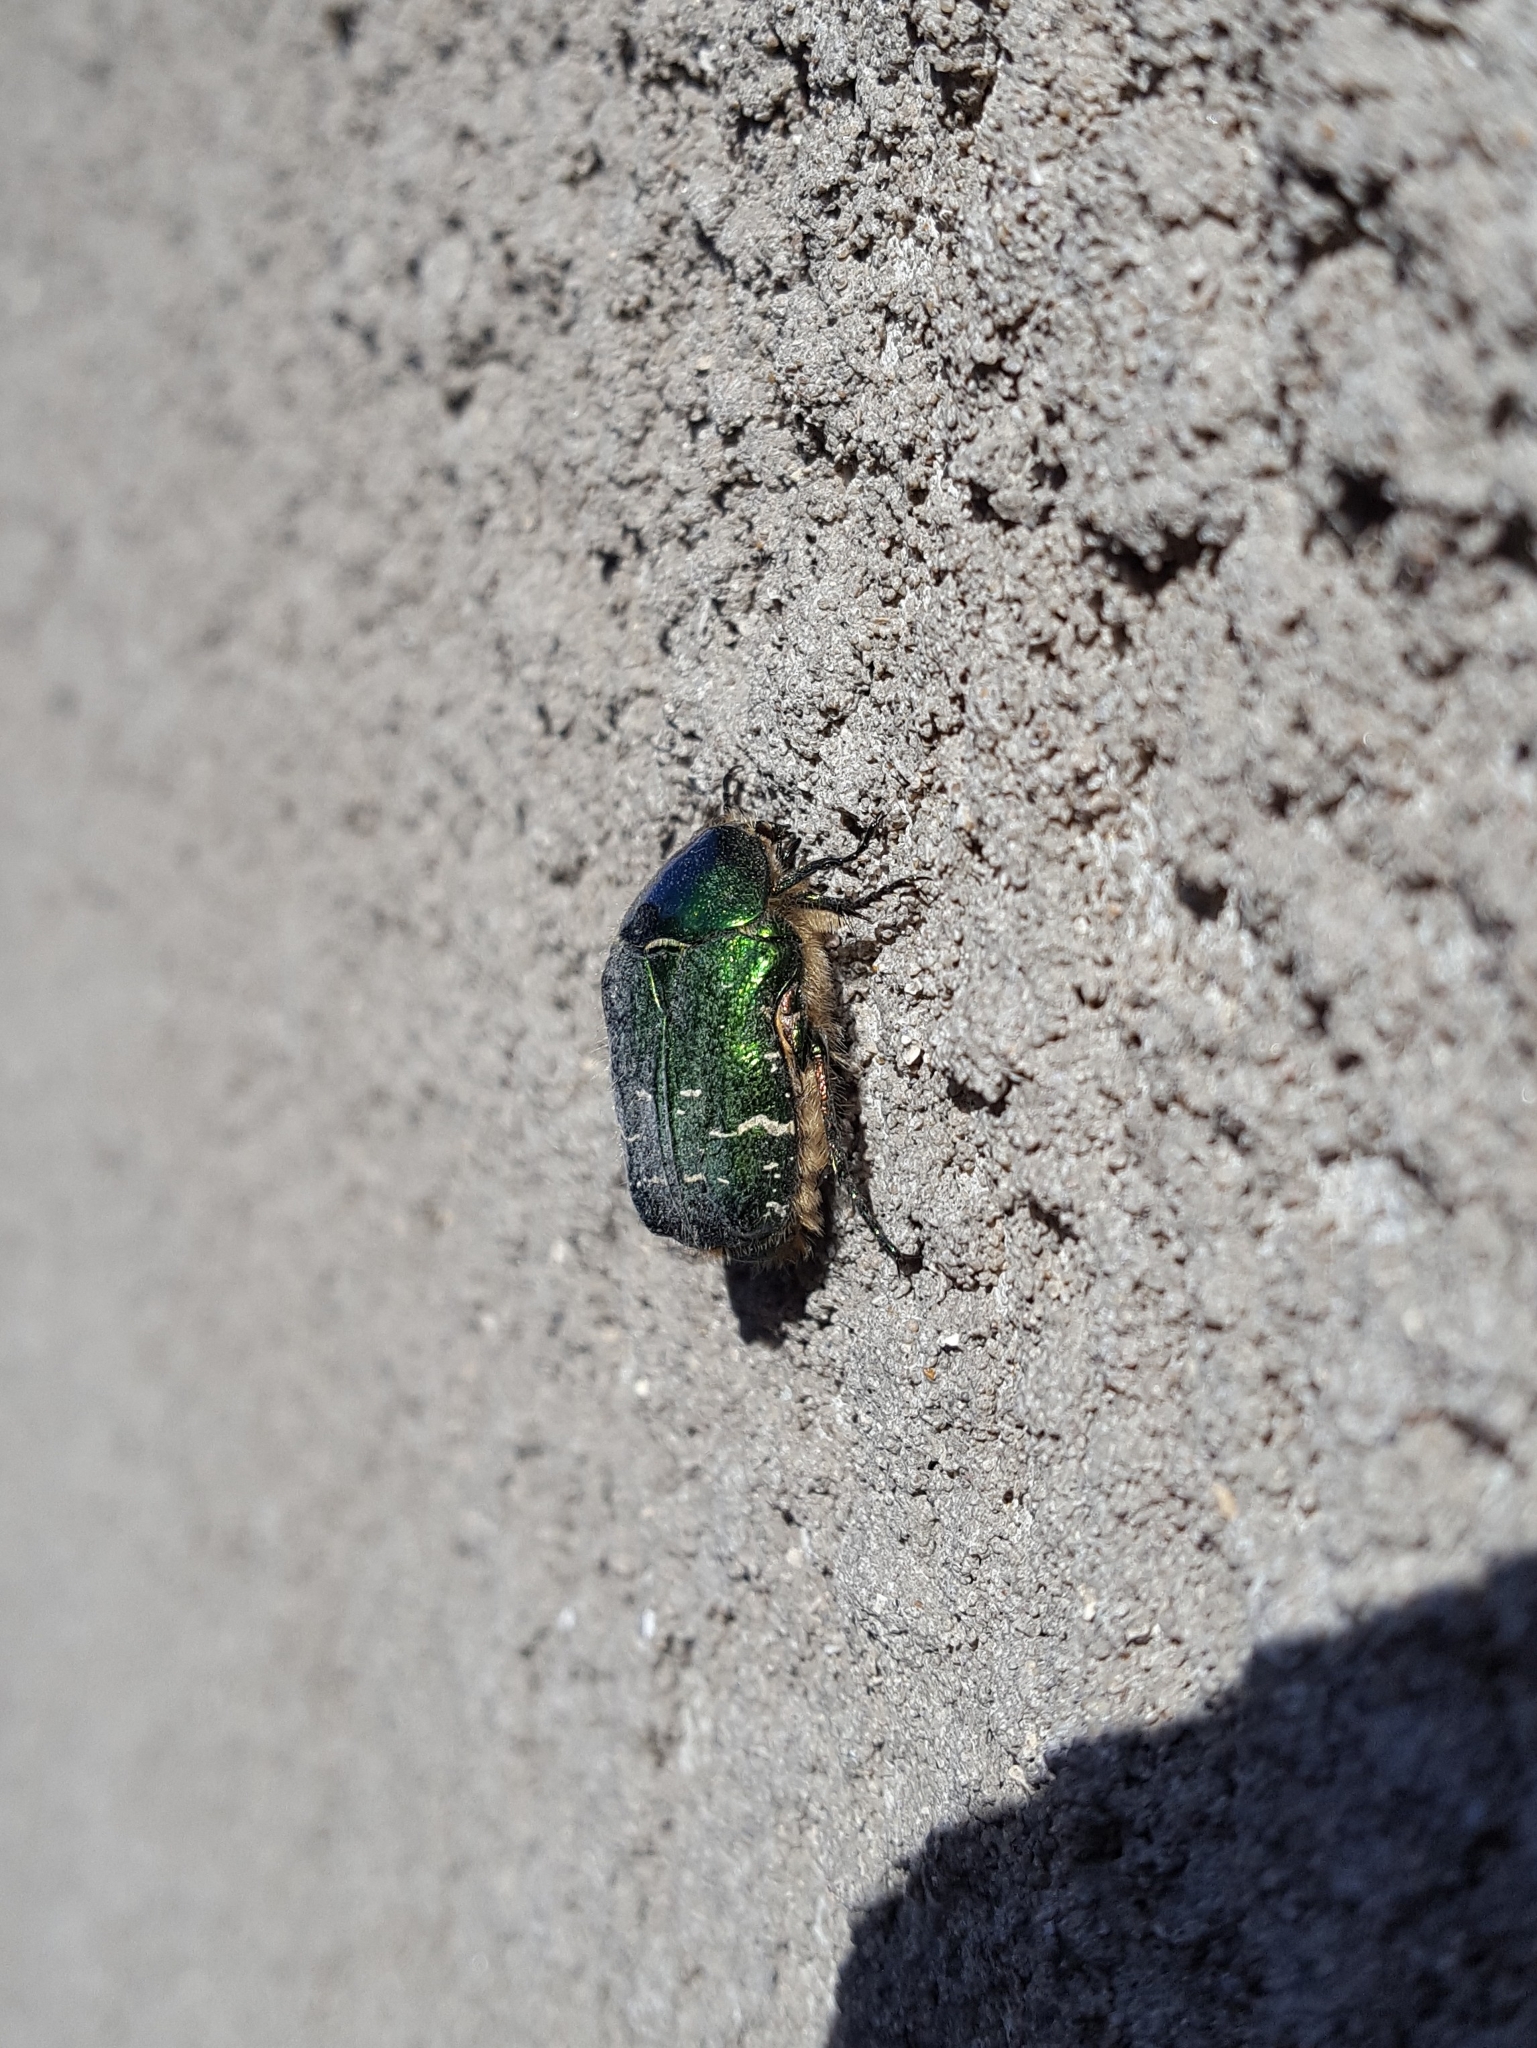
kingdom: Animalia
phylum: Arthropoda
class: Insecta
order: Coleoptera
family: Scarabaeidae
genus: Cetonia
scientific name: Cetonia aurata
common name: Rose chafer
